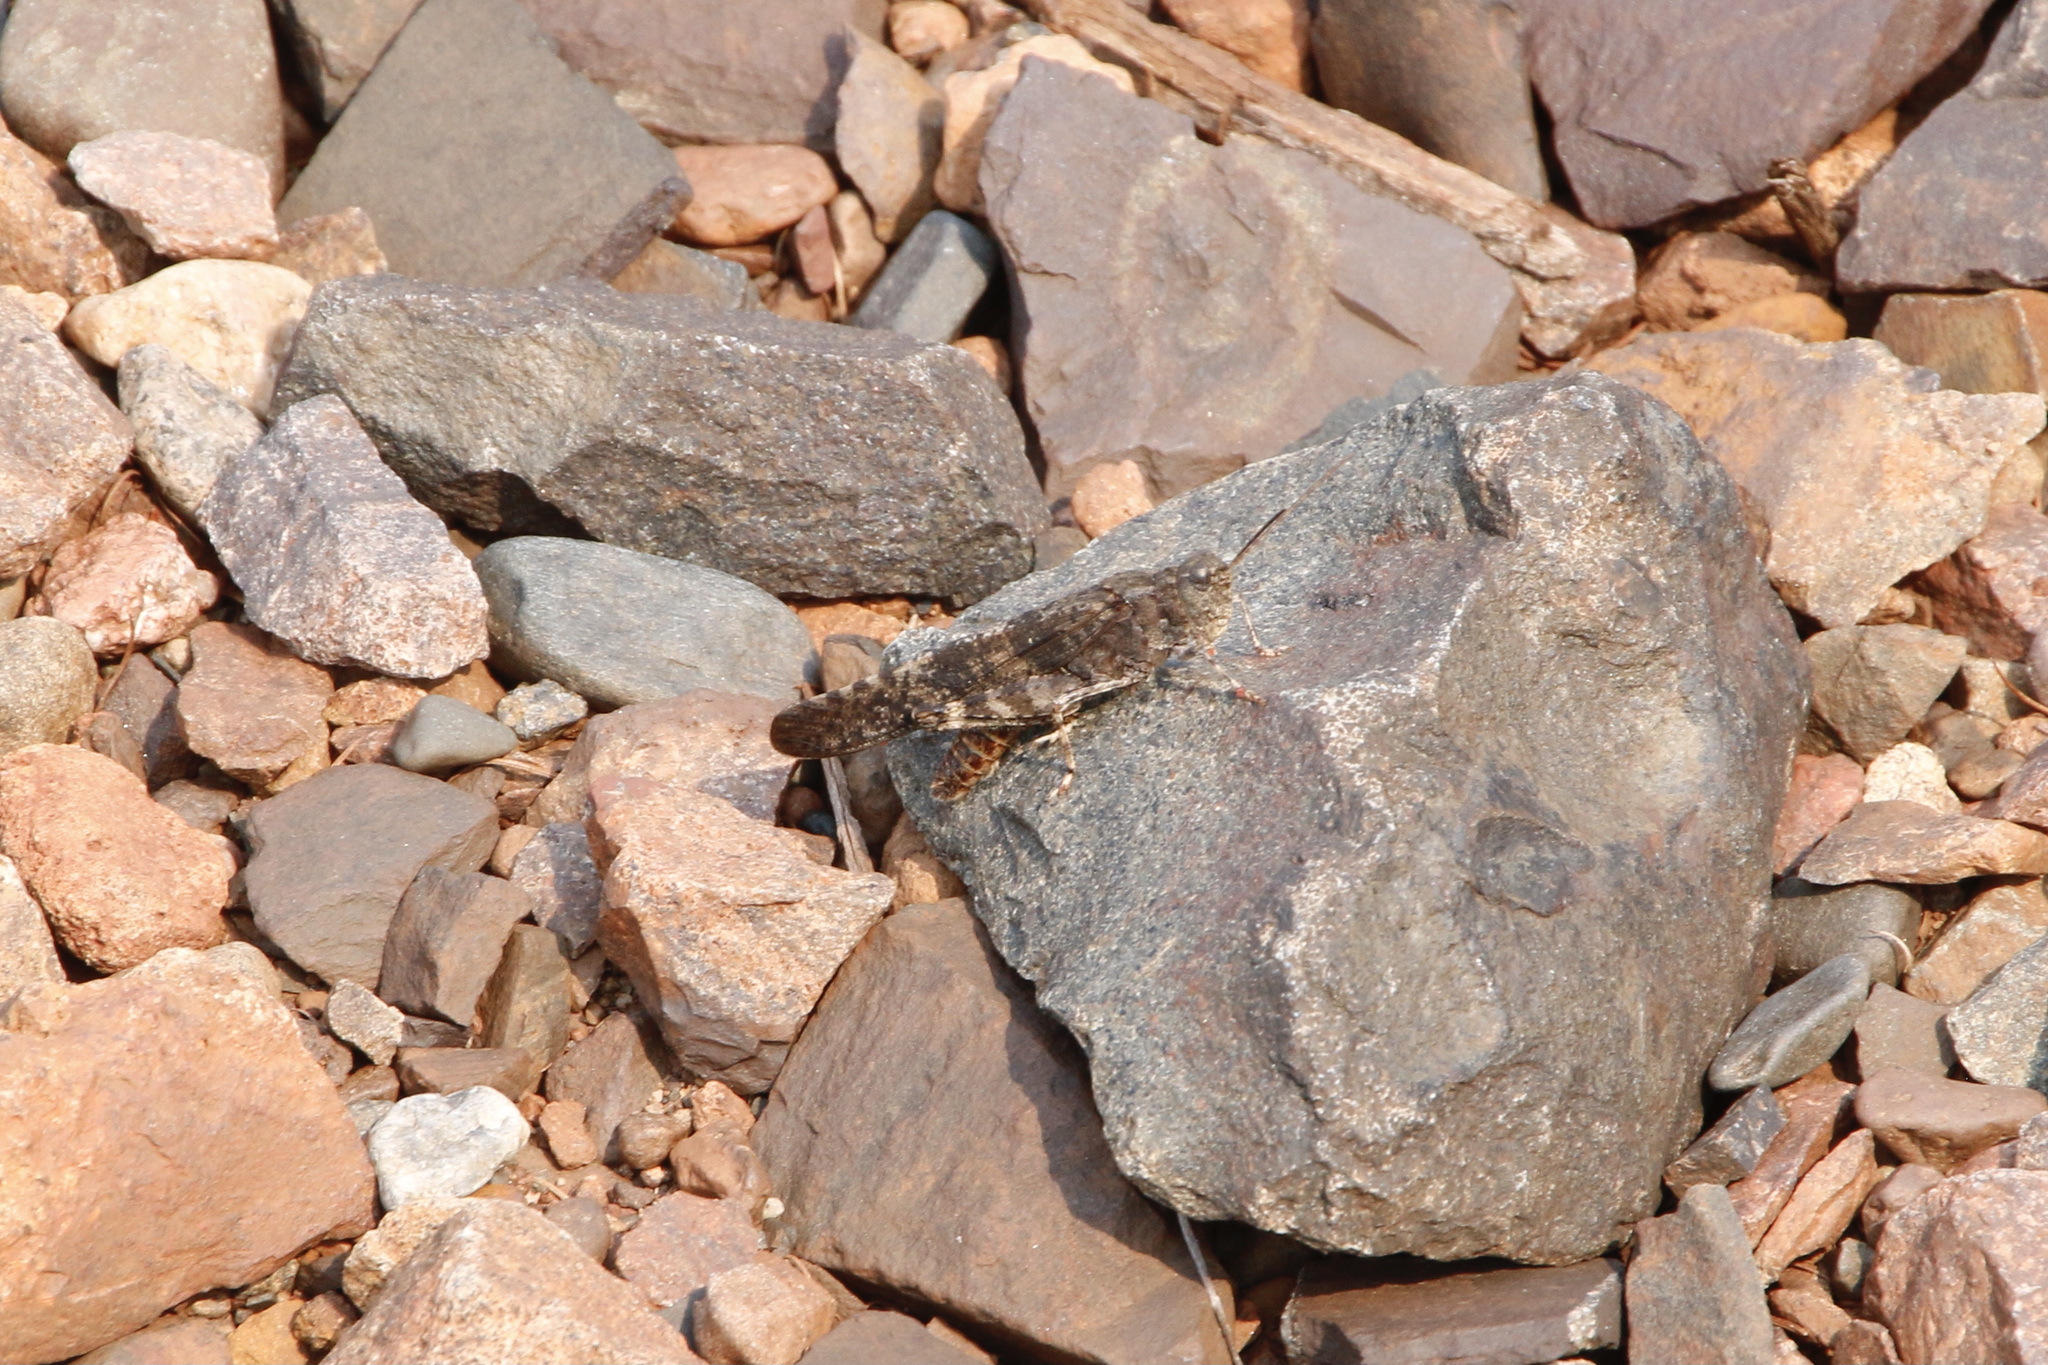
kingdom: Animalia
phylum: Arthropoda
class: Insecta
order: Orthoptera
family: Acrididae
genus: Trimerotropis
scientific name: Trimerotropis verruculata
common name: Crackling forest grasshopper
